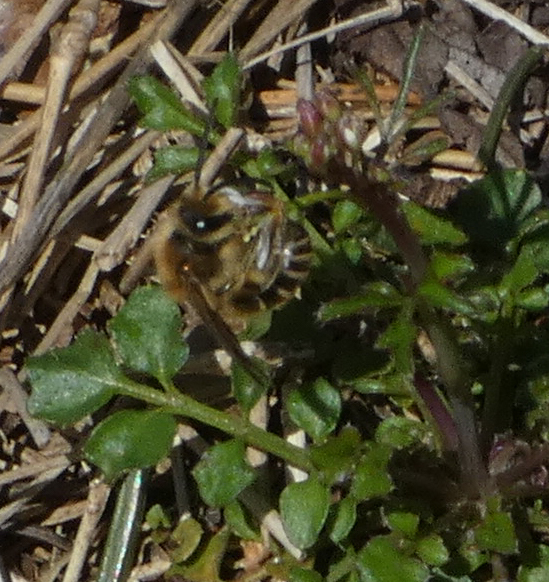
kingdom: Animalia
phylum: Arthropoda
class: Insecta
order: Hymenoptera
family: Colletidae
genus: Colletes
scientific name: Colletes inaequalis
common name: Unequal cellophane bee
